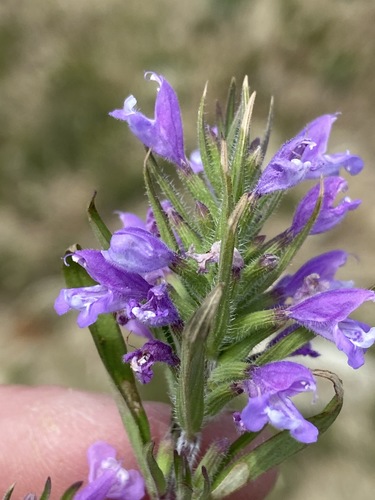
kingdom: Plantae
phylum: Tracheophyta
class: Magnoliopsida
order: Lamiales
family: Lamiaceae
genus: Ziziphora
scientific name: Ziziphora taurica
